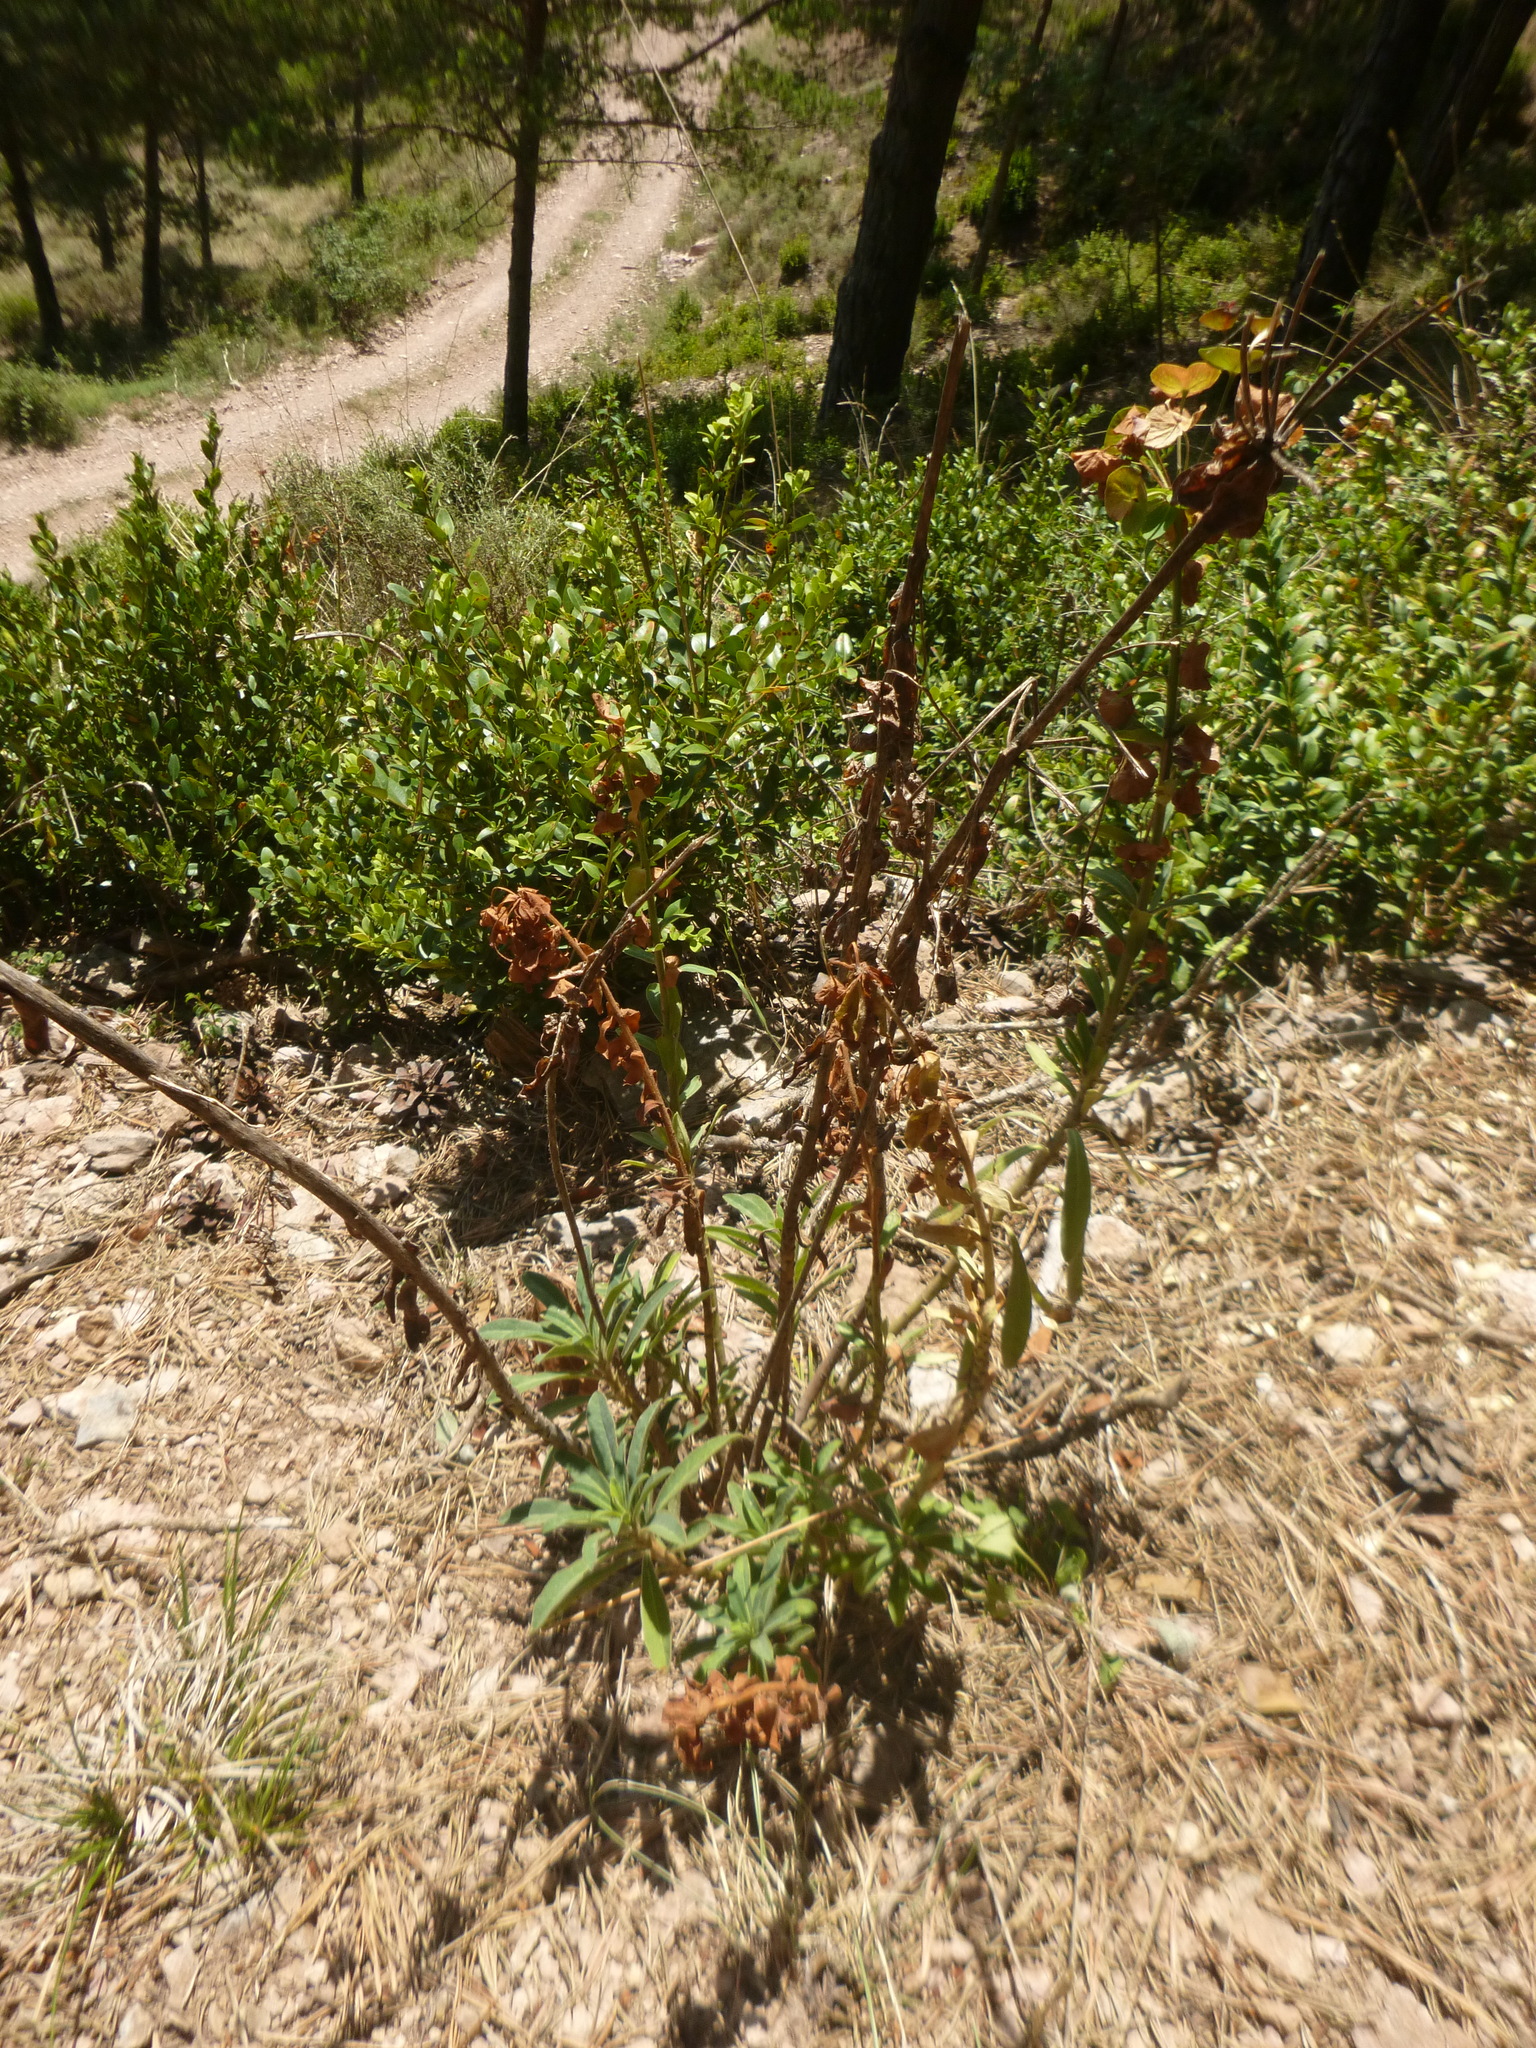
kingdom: Plantae
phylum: Tracheophyta
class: Magnoliopsida
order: Malpighiales
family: Euphorbiaceae
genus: Euphorbia
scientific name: Euphorbia characias
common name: Mediterranean spurge
